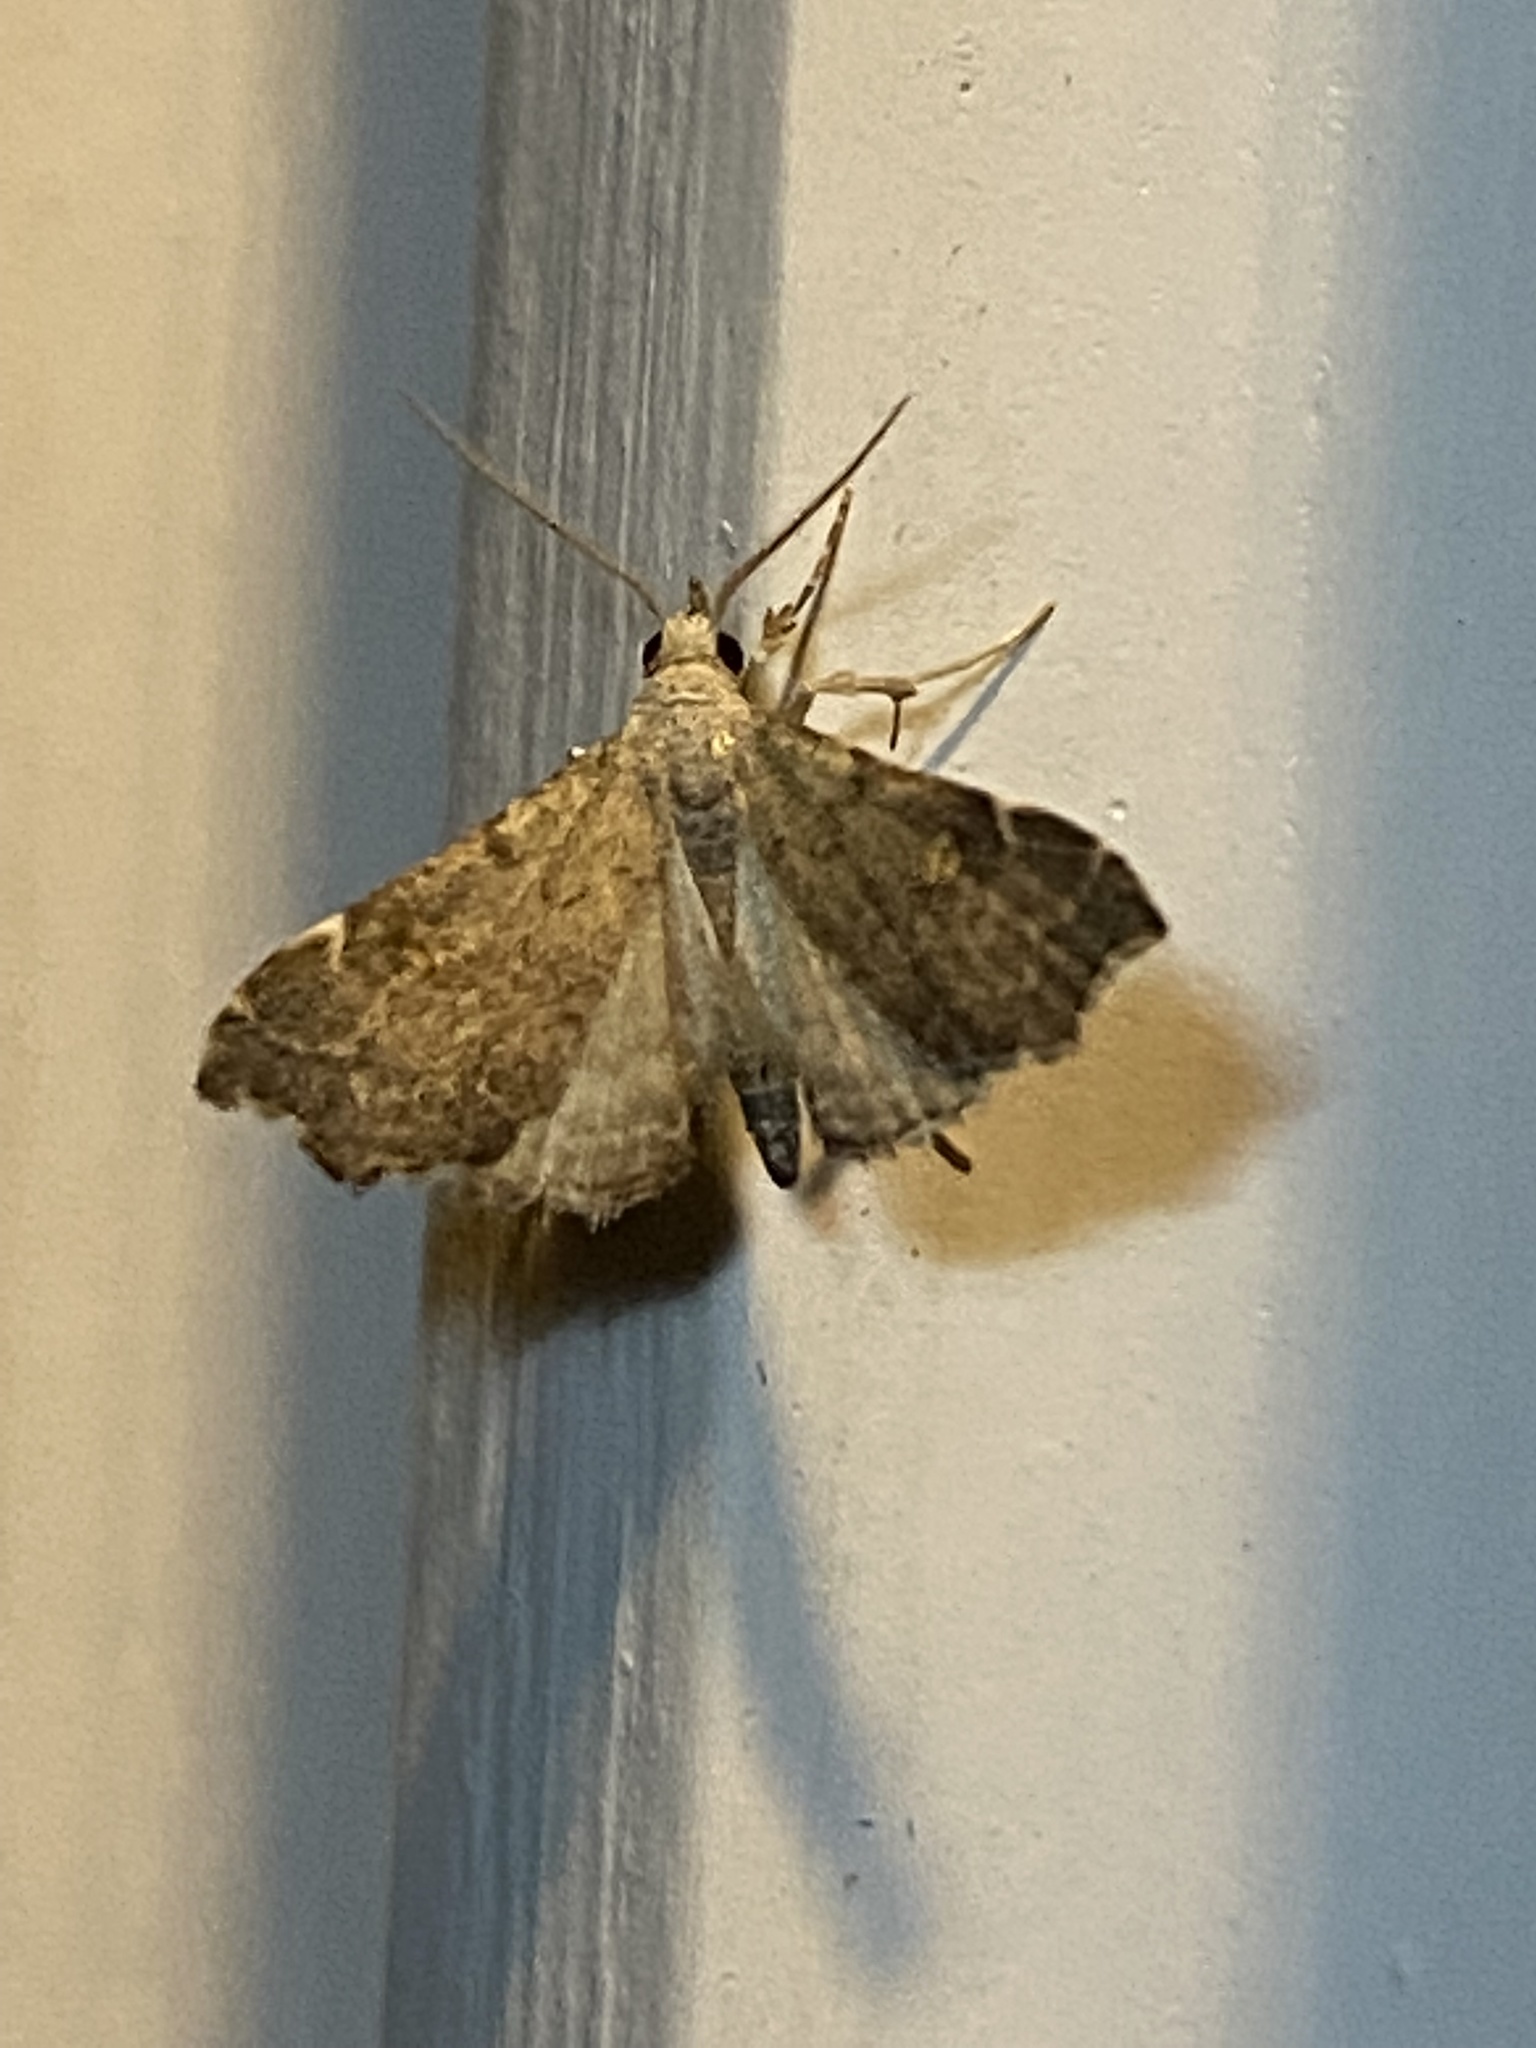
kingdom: Animalia
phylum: Arthropoda
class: Insecta
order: Lepidoptera
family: Erebidae
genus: Redectis
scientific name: Redectis pygmaea
